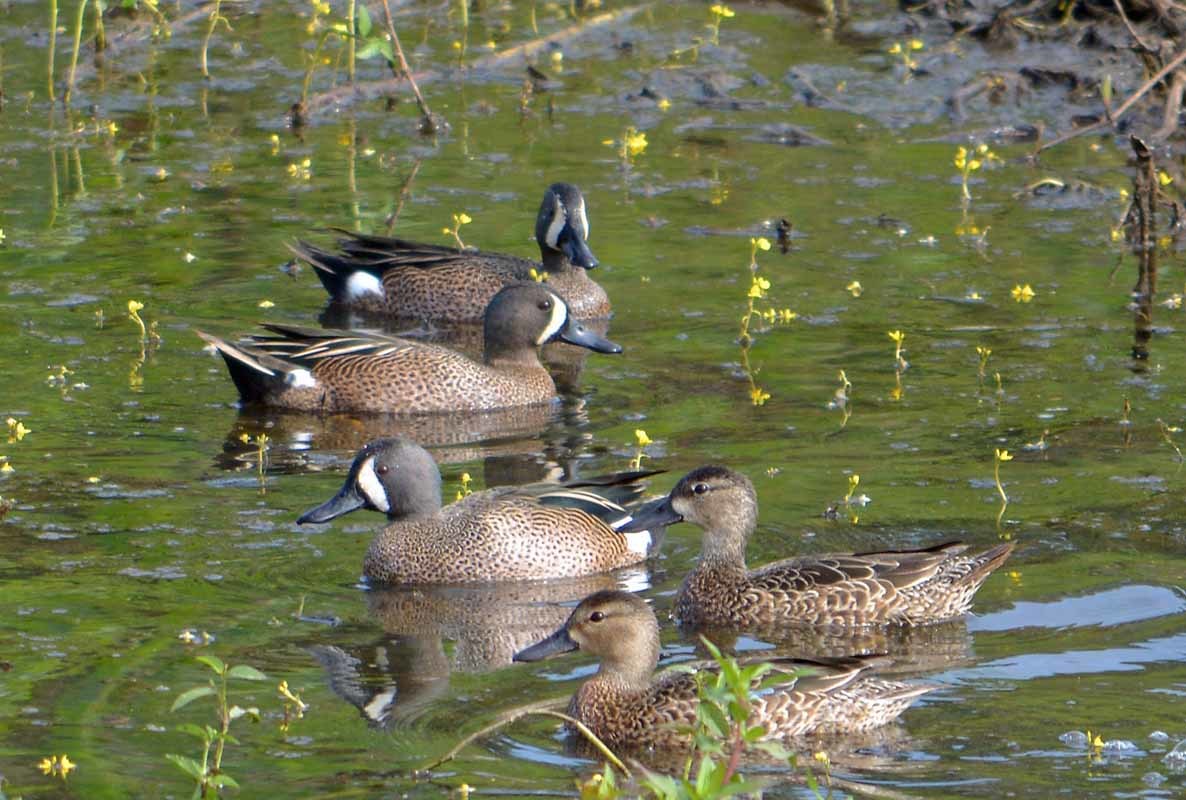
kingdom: Animalia
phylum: Chordata
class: Aves
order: Anseriformes
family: Anatidae
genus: Spatula
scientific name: Spatula discors
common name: Blue-winged teal
